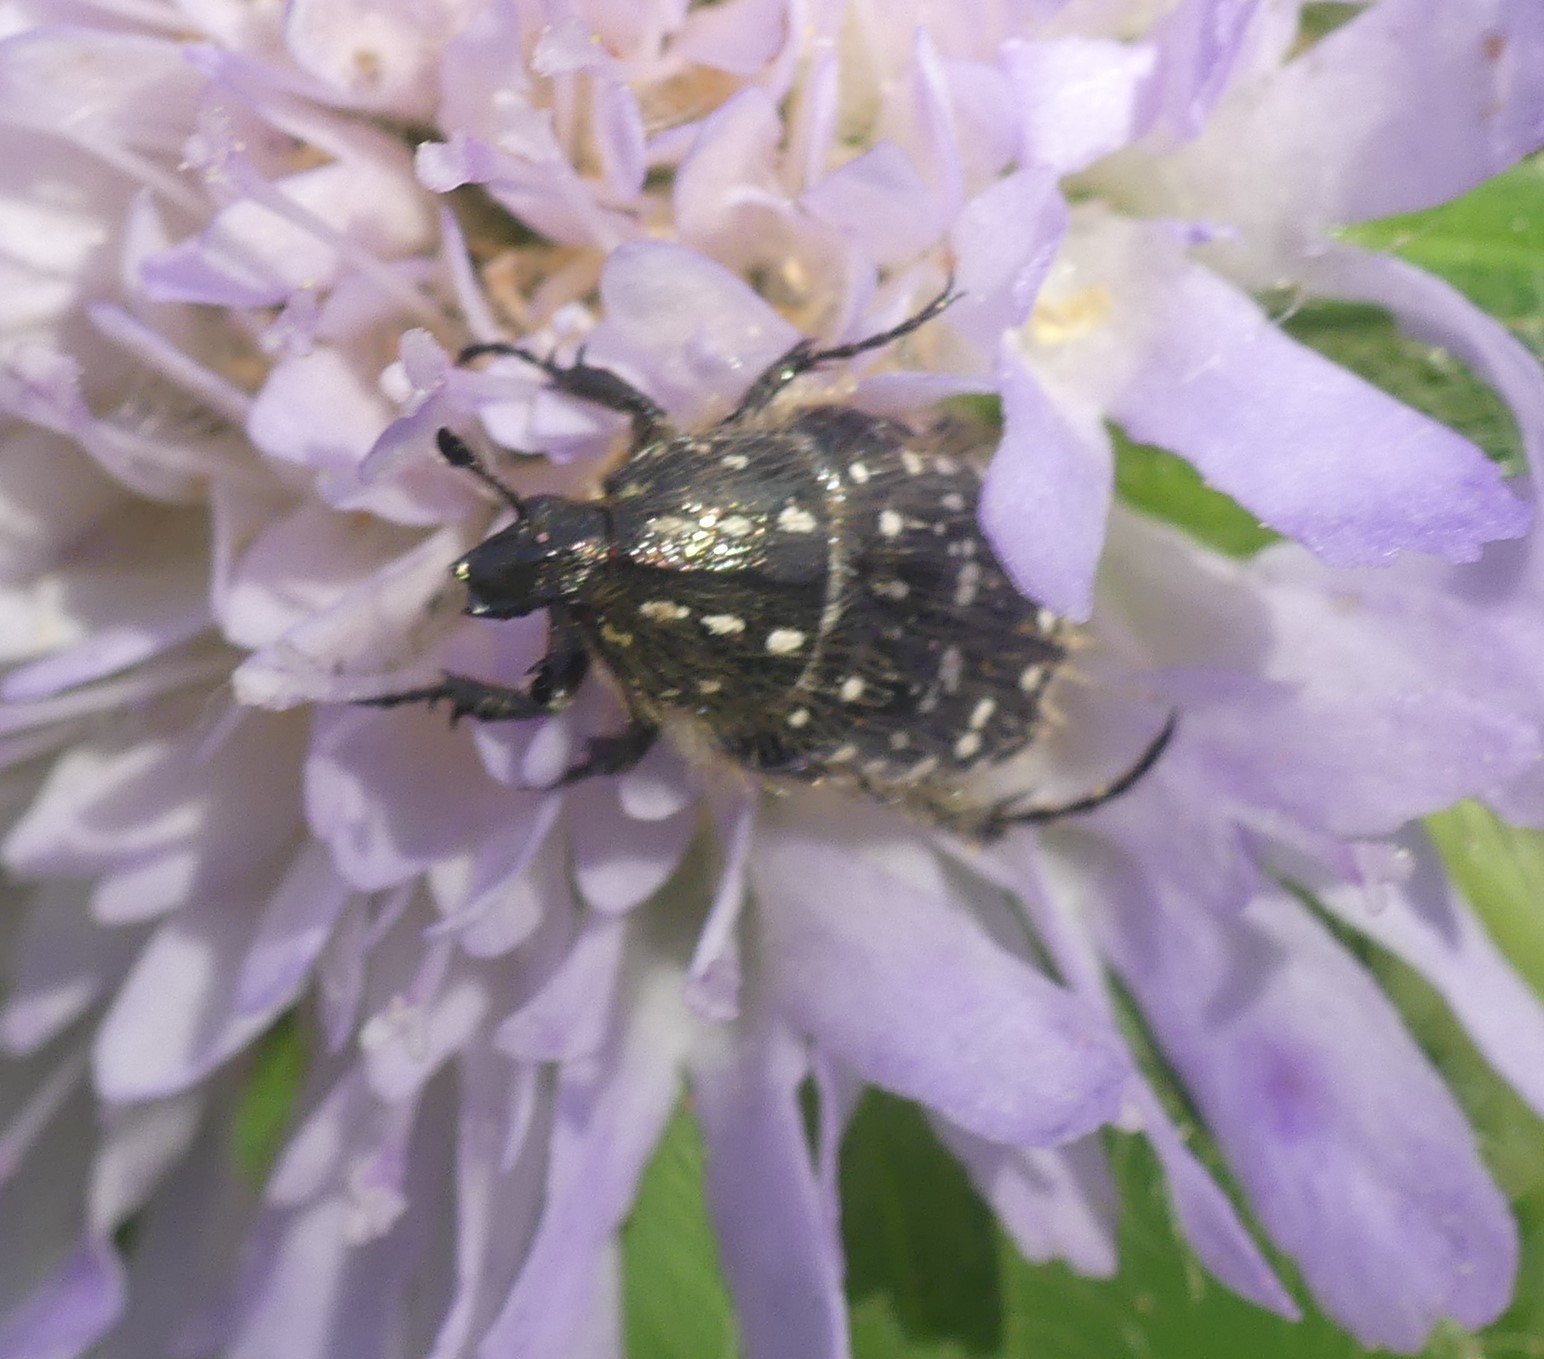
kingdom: Animalia
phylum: Arthropoda
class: Insecta
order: Coleoptera
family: Scarabaeidae
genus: Oxythyrea
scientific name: Oxythyrea funesta
